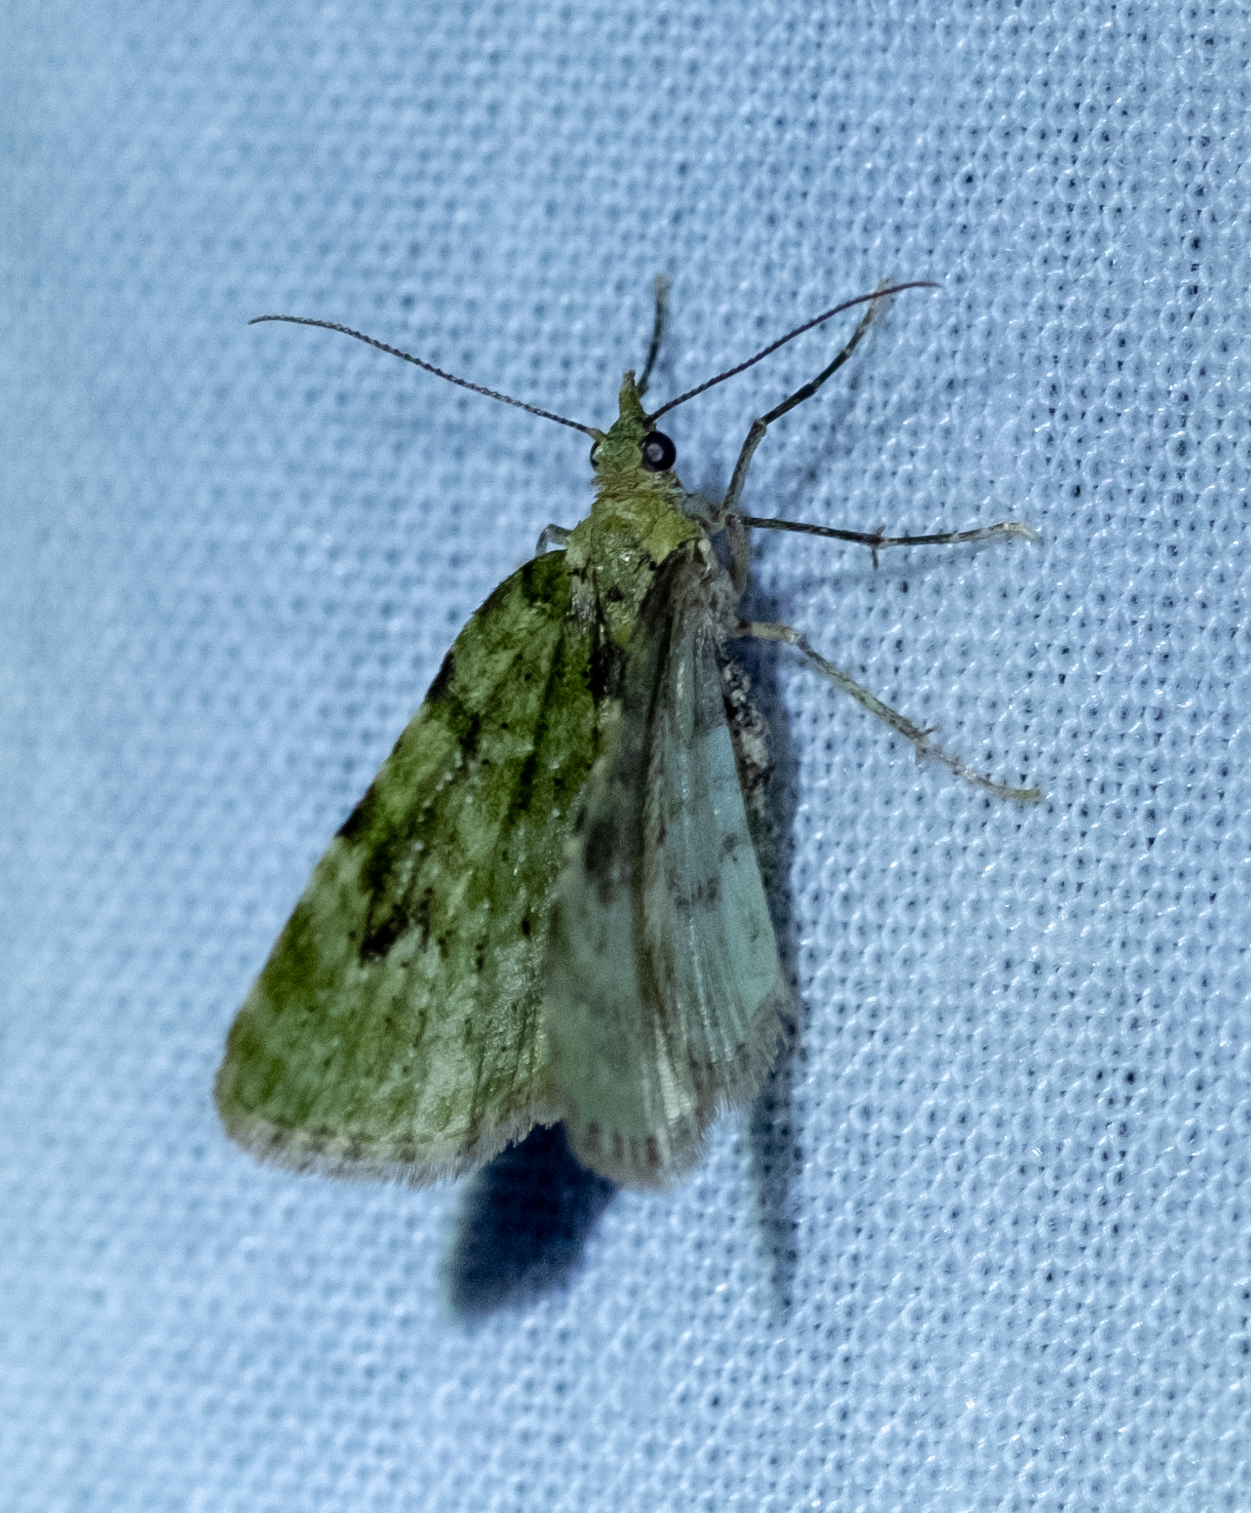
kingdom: Animalia
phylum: Arthropoda
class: Insecta
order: Lepidoptera
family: Geometridae
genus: Chloroclystis
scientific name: Chloroclystis v-ata
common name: V-pug
